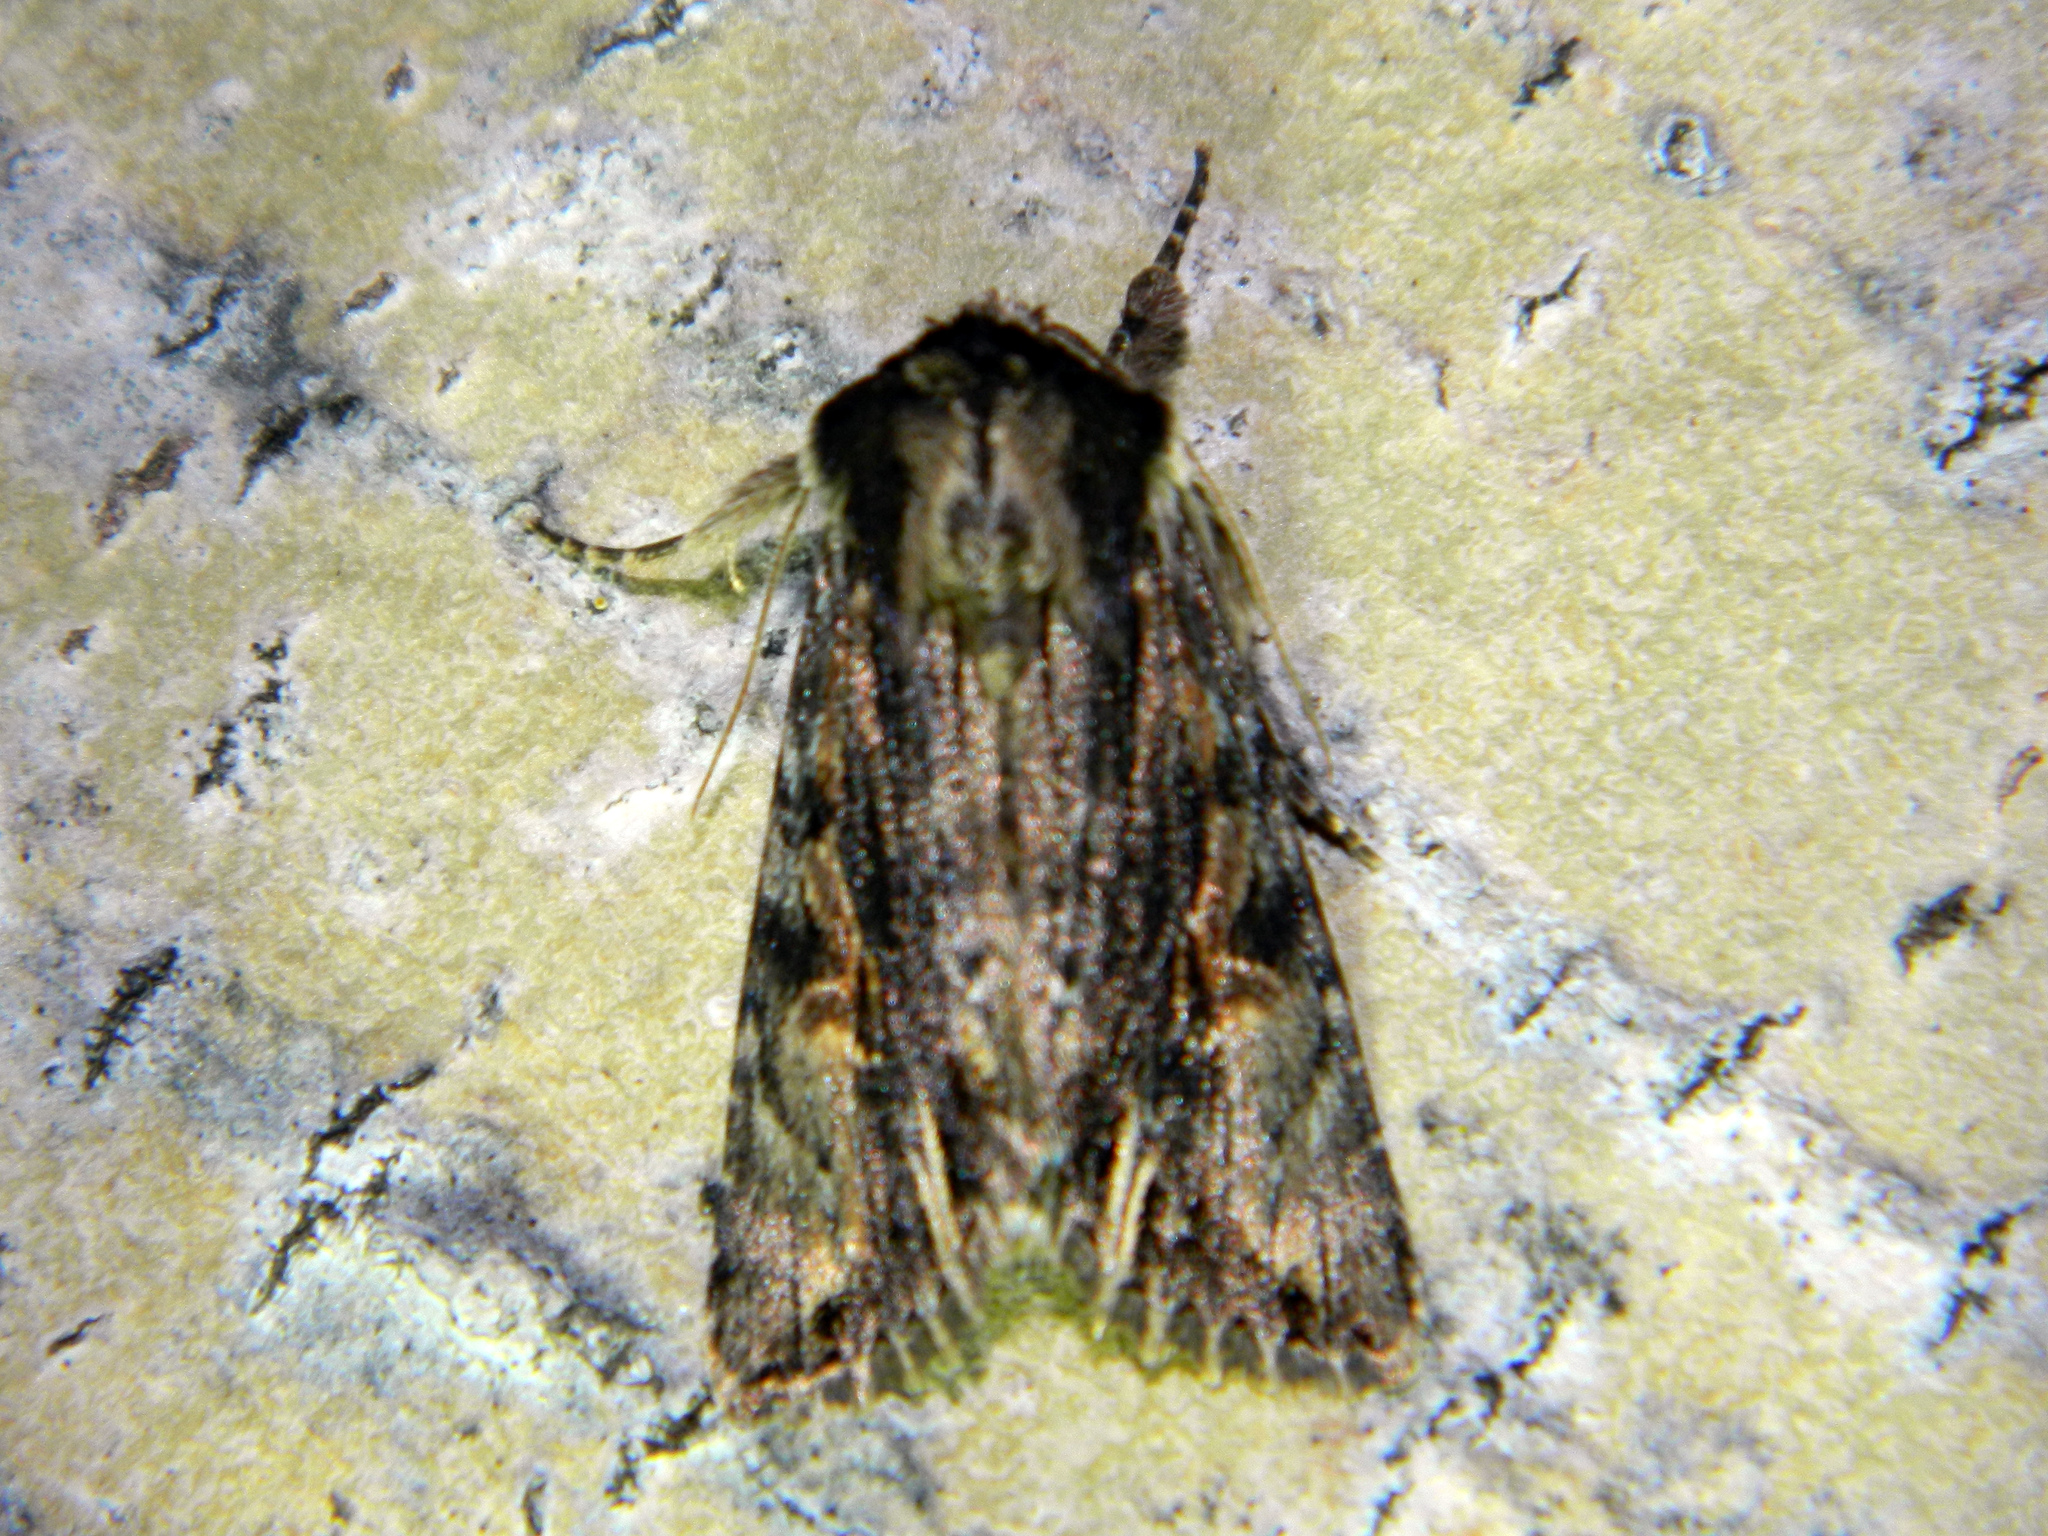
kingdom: Animalia
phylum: Arthropoda
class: Insecta
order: Lepidoptera
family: Noctuidae
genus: Achatia
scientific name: Achatia evicta
